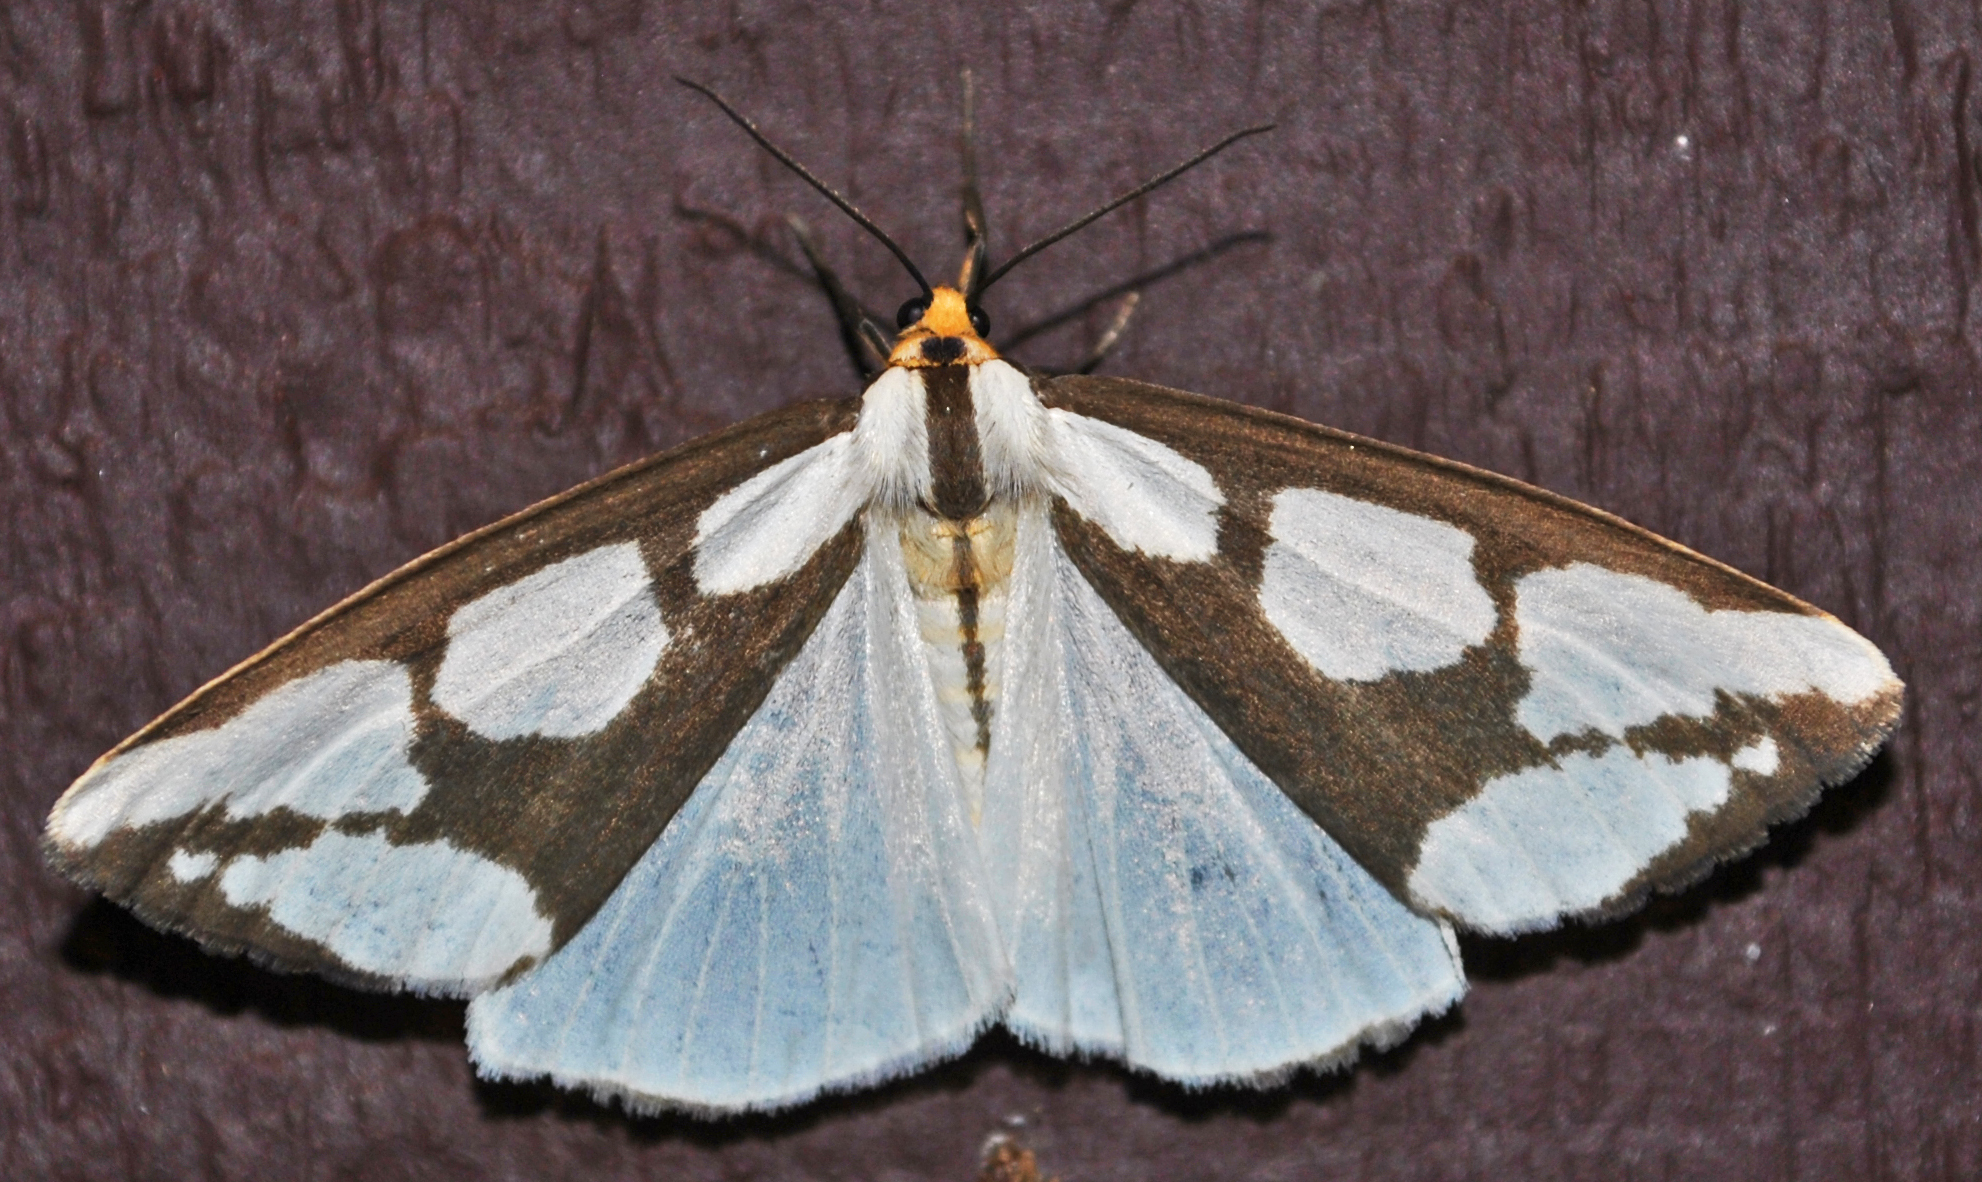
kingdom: Animalia
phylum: Arthropoda
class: Insecta
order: Lepidoptera
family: Erebidae
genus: Haploa
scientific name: Haploa lecontei
